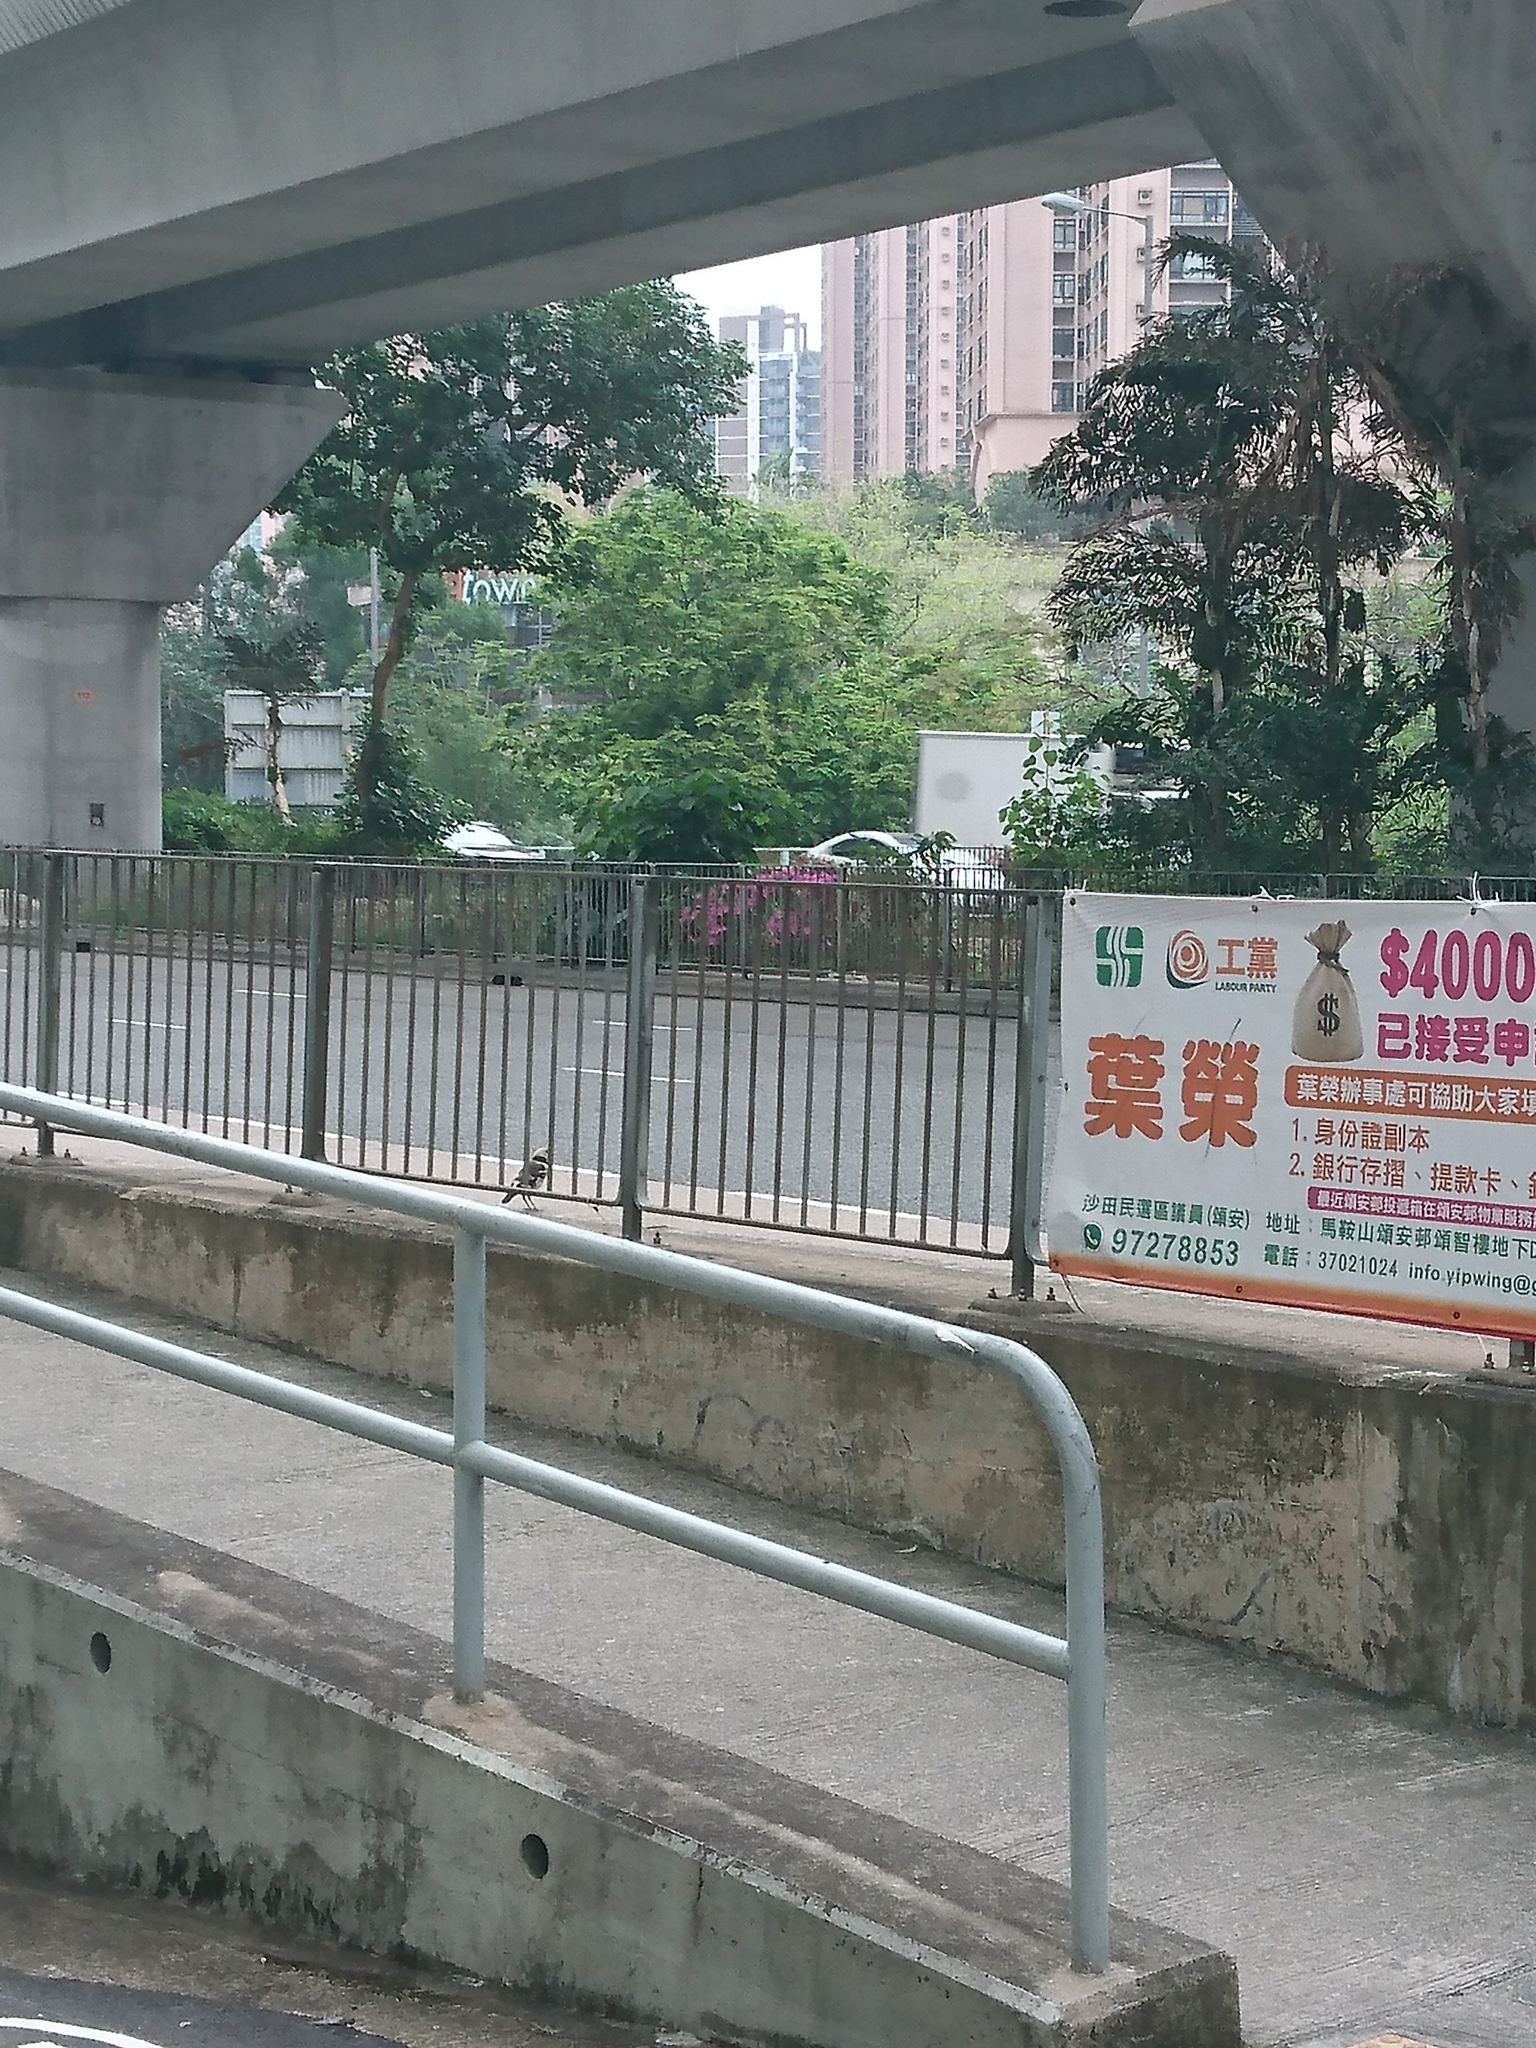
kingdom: Animalia
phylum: Chordata
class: Aves
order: Passeriformes
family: Sturnidae
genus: Gracupica
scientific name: Gracupica nigricollis
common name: Black-collared starling
